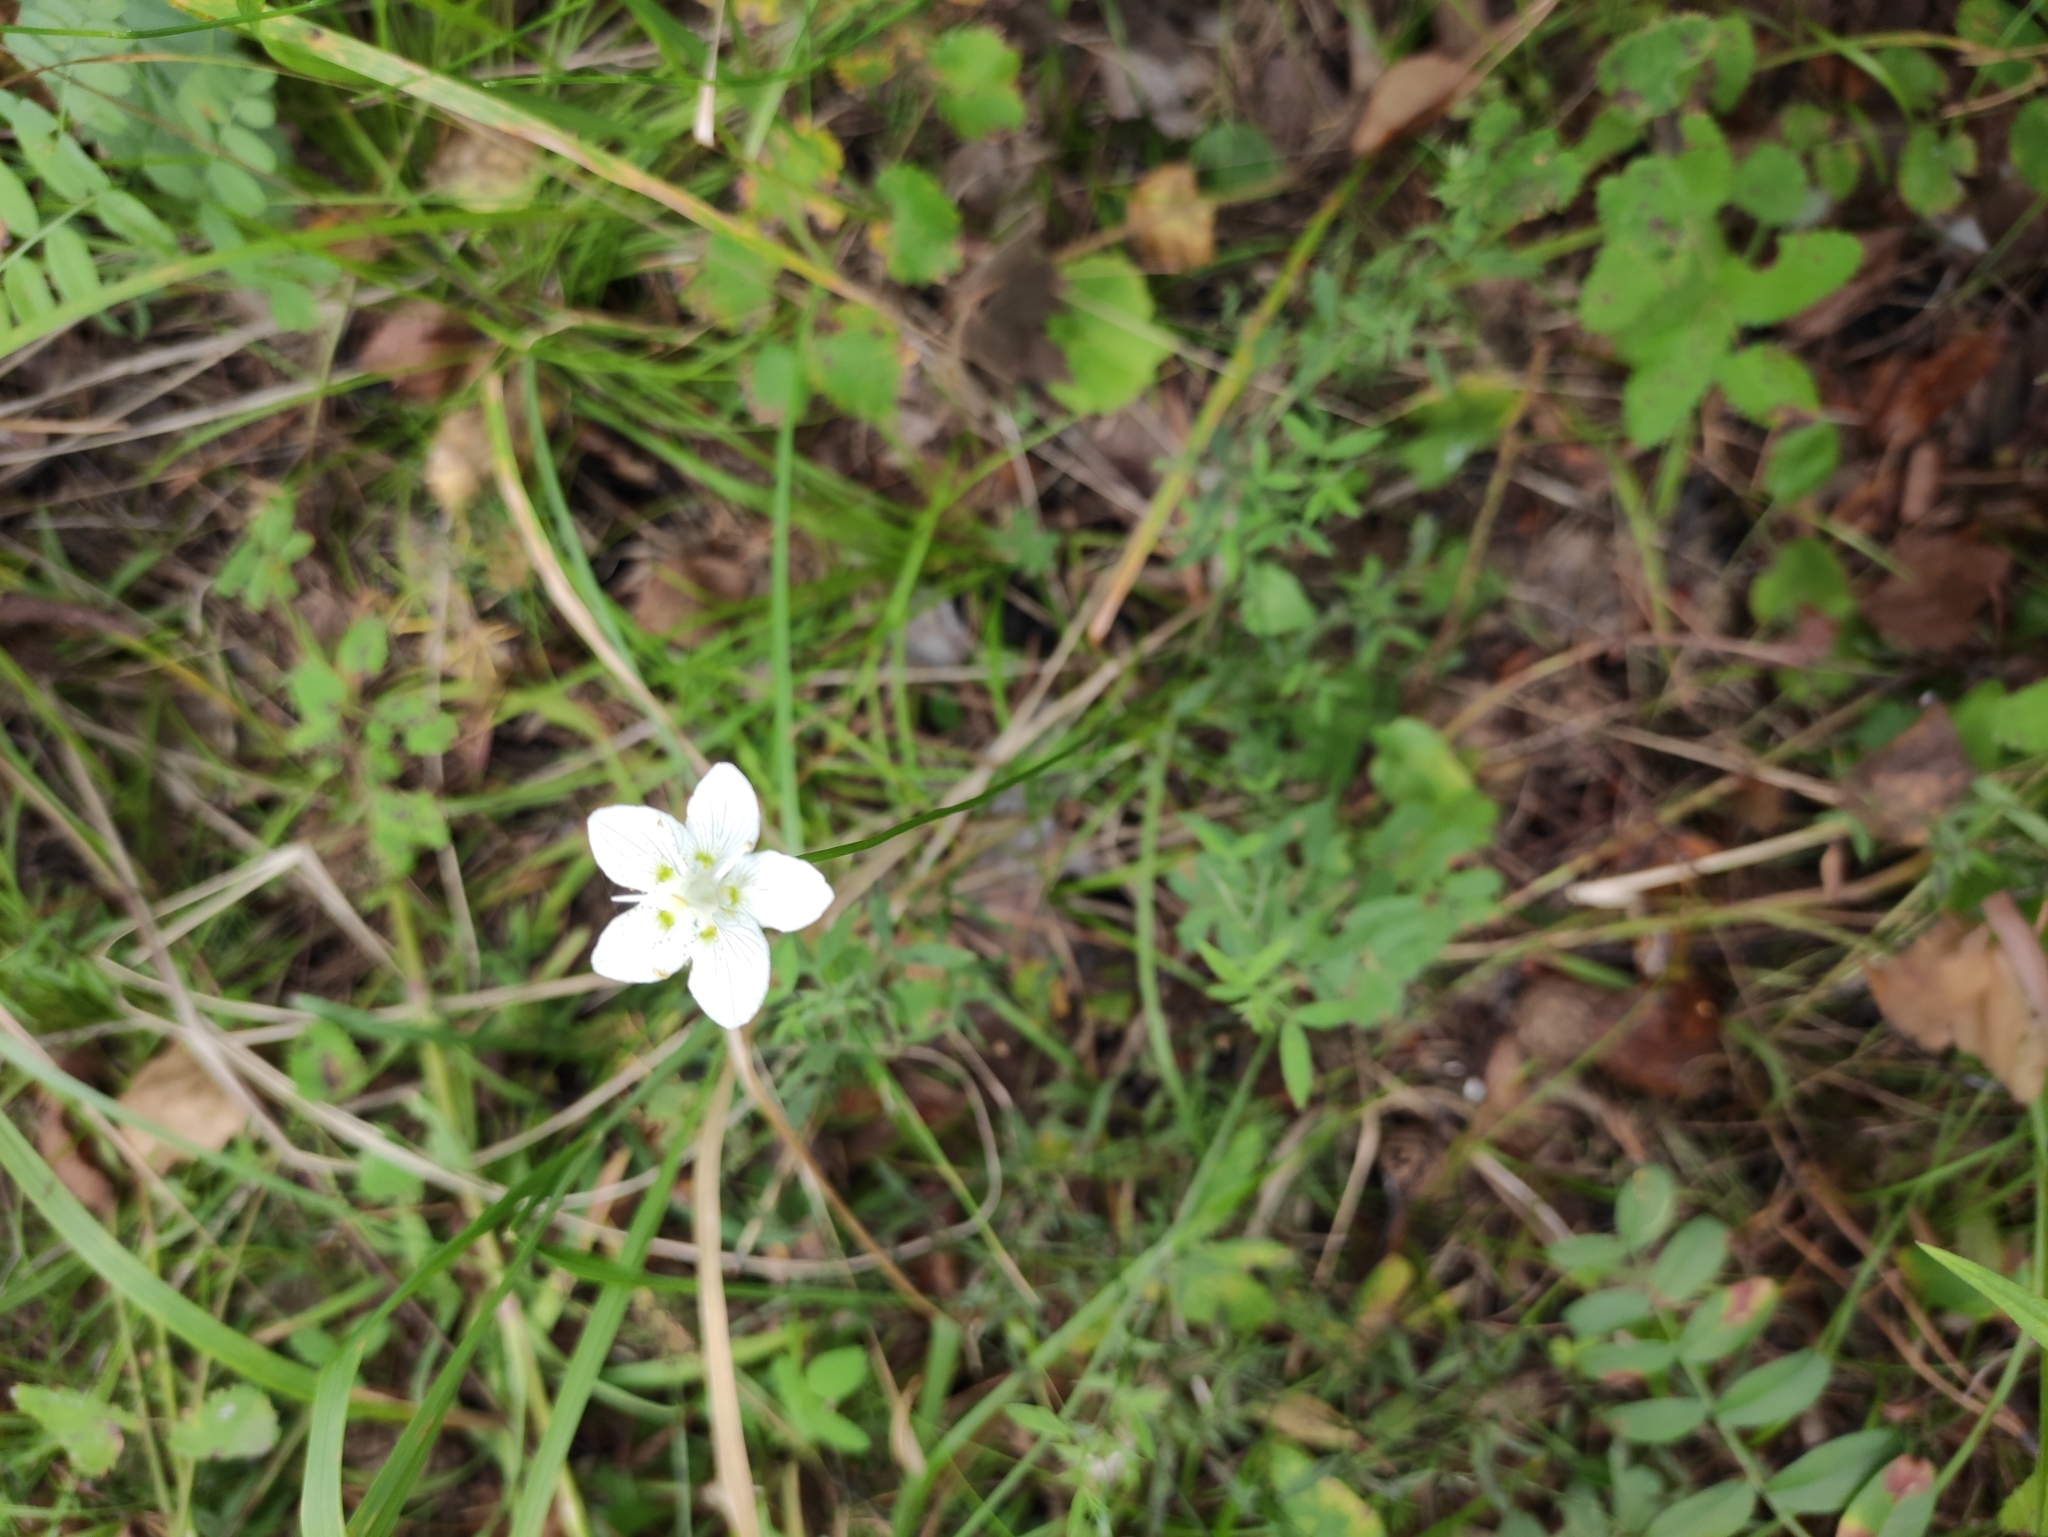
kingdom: Plantae
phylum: Tracheophyta
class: Magnoliopsida
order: Celastrales
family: Parnassiaceae
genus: Parnassia
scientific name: Parnassia palustris
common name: Grass-of-parnassus
